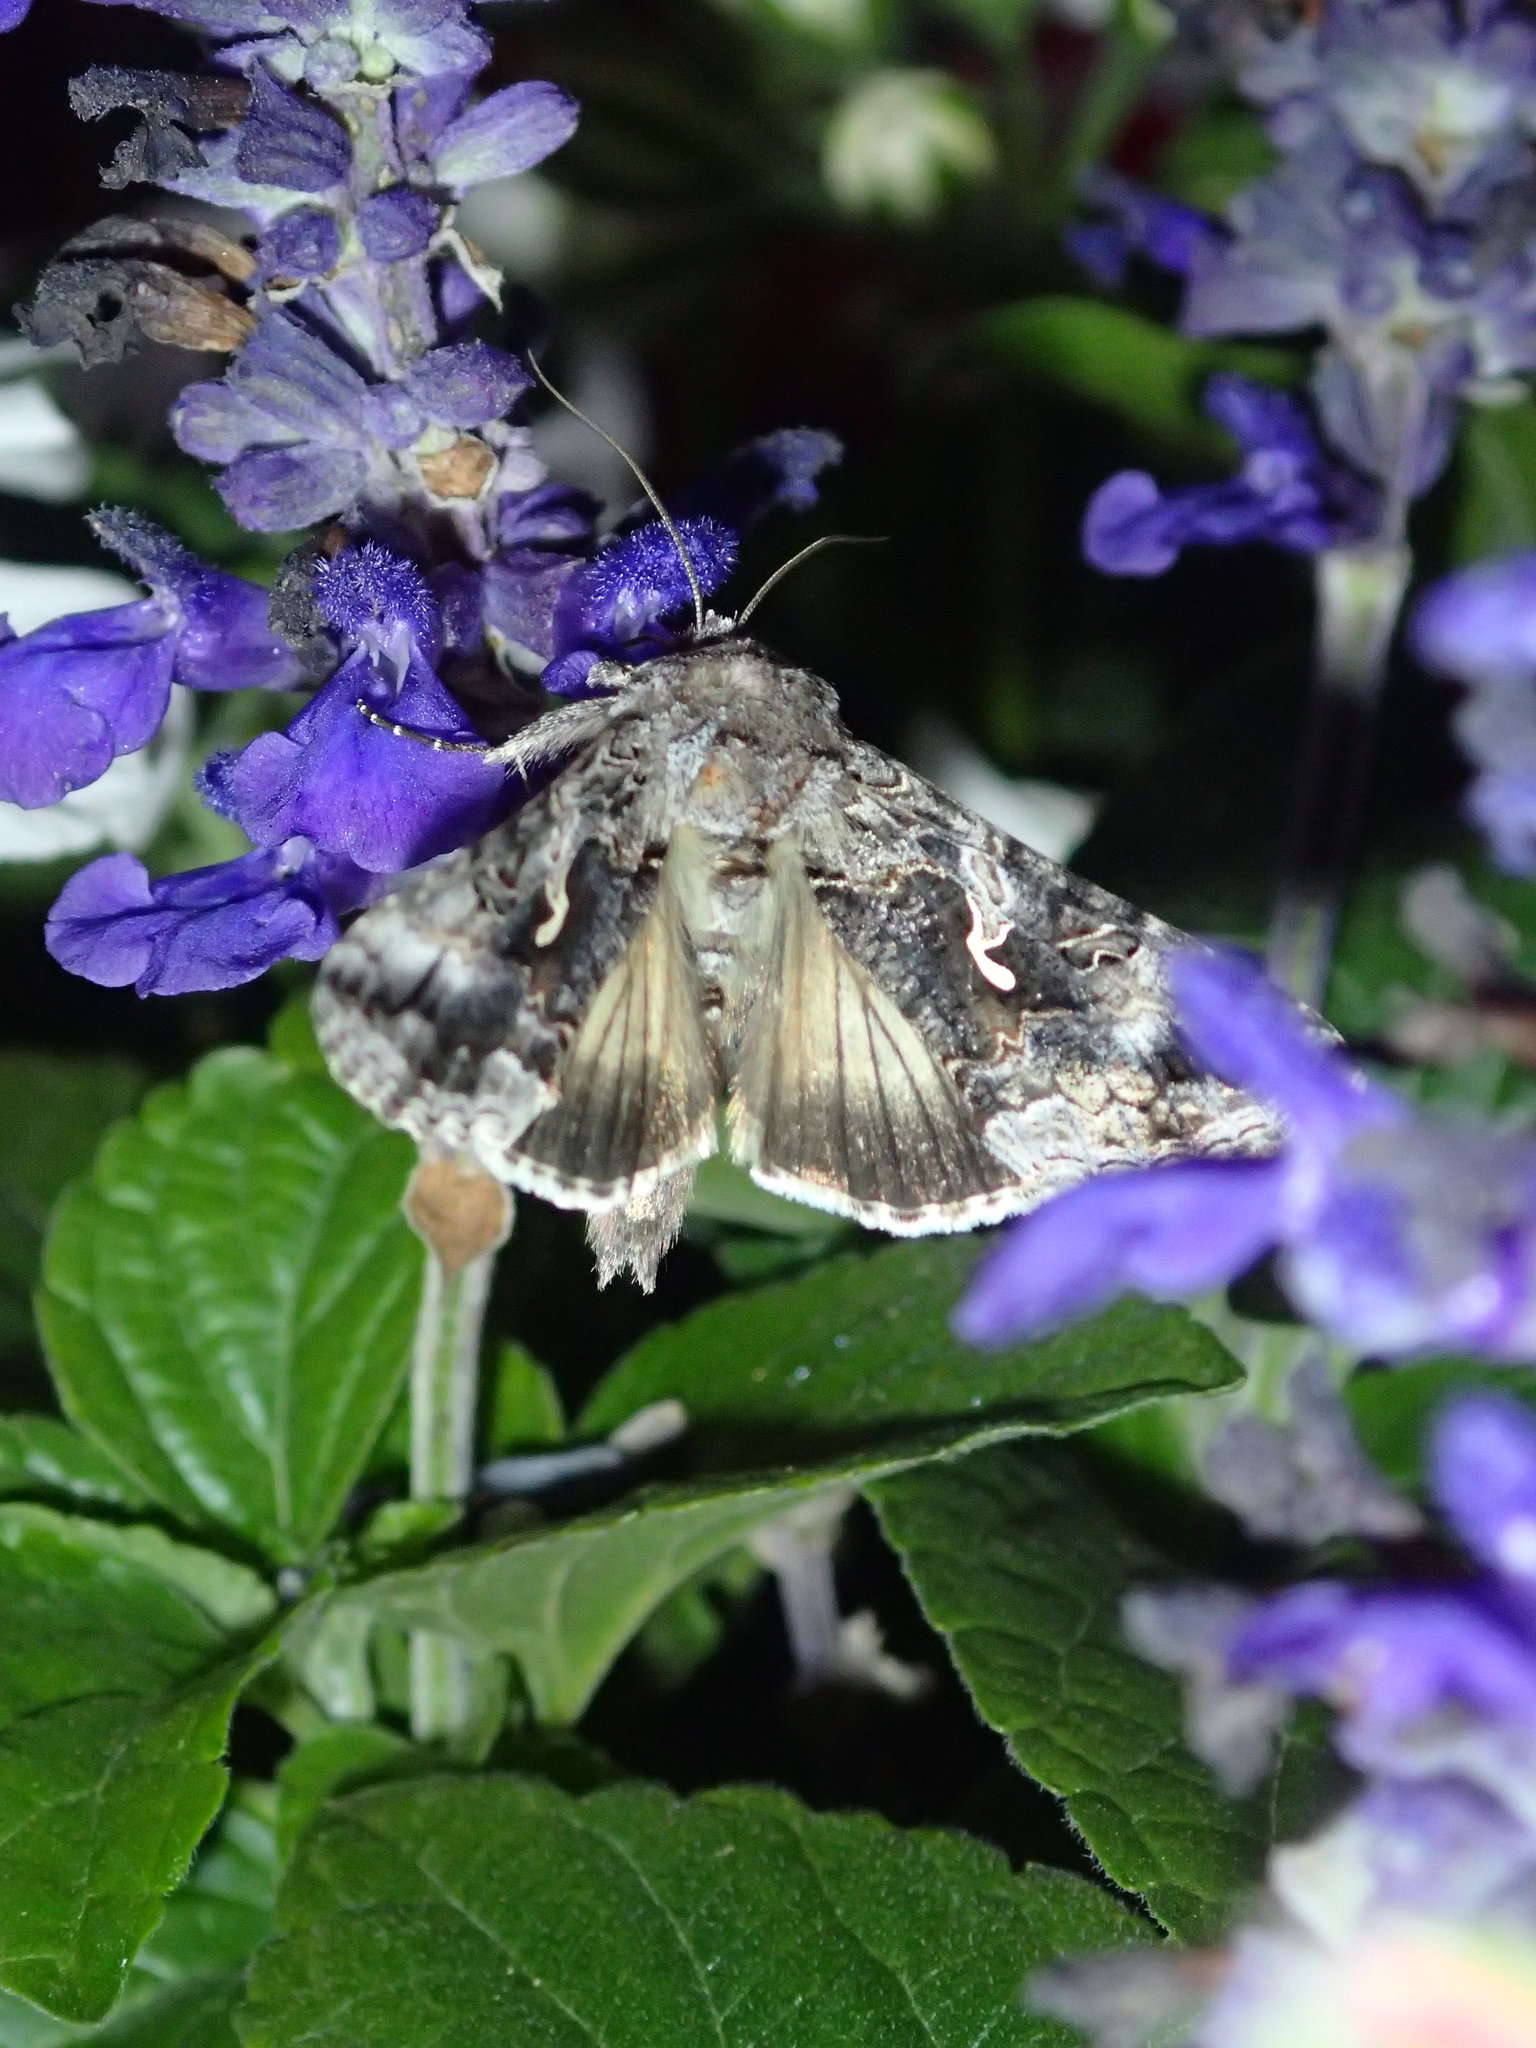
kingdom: Animalia
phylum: Arthropoda
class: Insecta
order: Lepidoptera
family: Noctuidae
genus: Autographa
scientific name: Autographa californica
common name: Alfalfa looper
